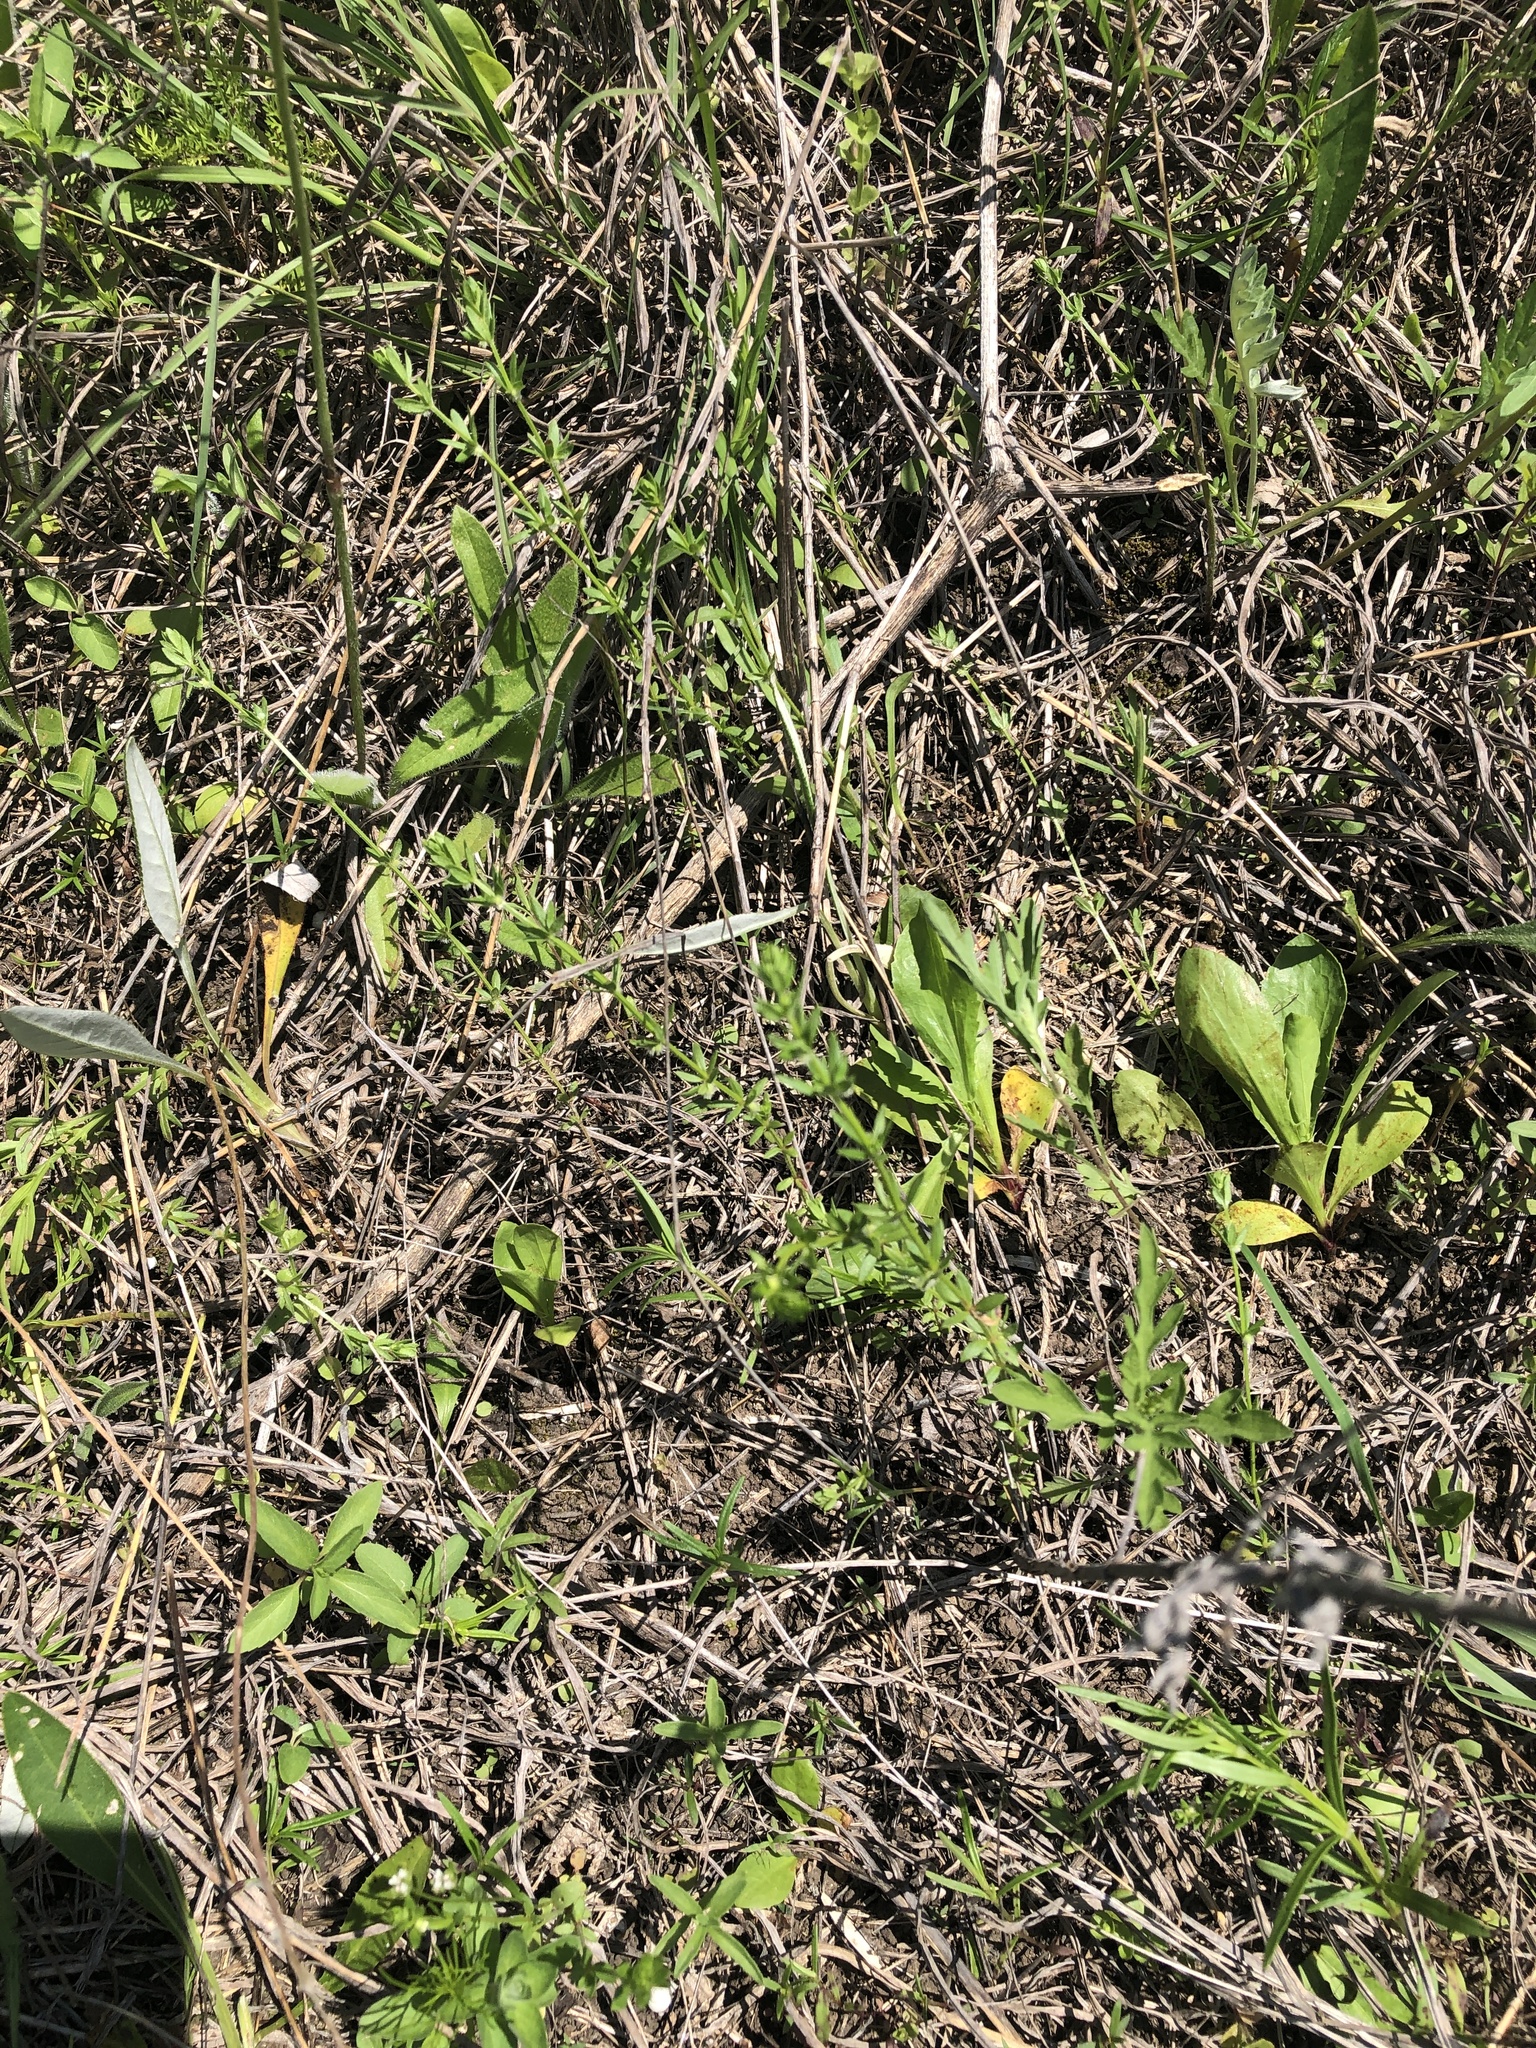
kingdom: Plantae
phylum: Tracheophyta
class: Magnoliopsida
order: Gentianales
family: Rubiaceae
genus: Galium
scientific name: Galium virgatum
